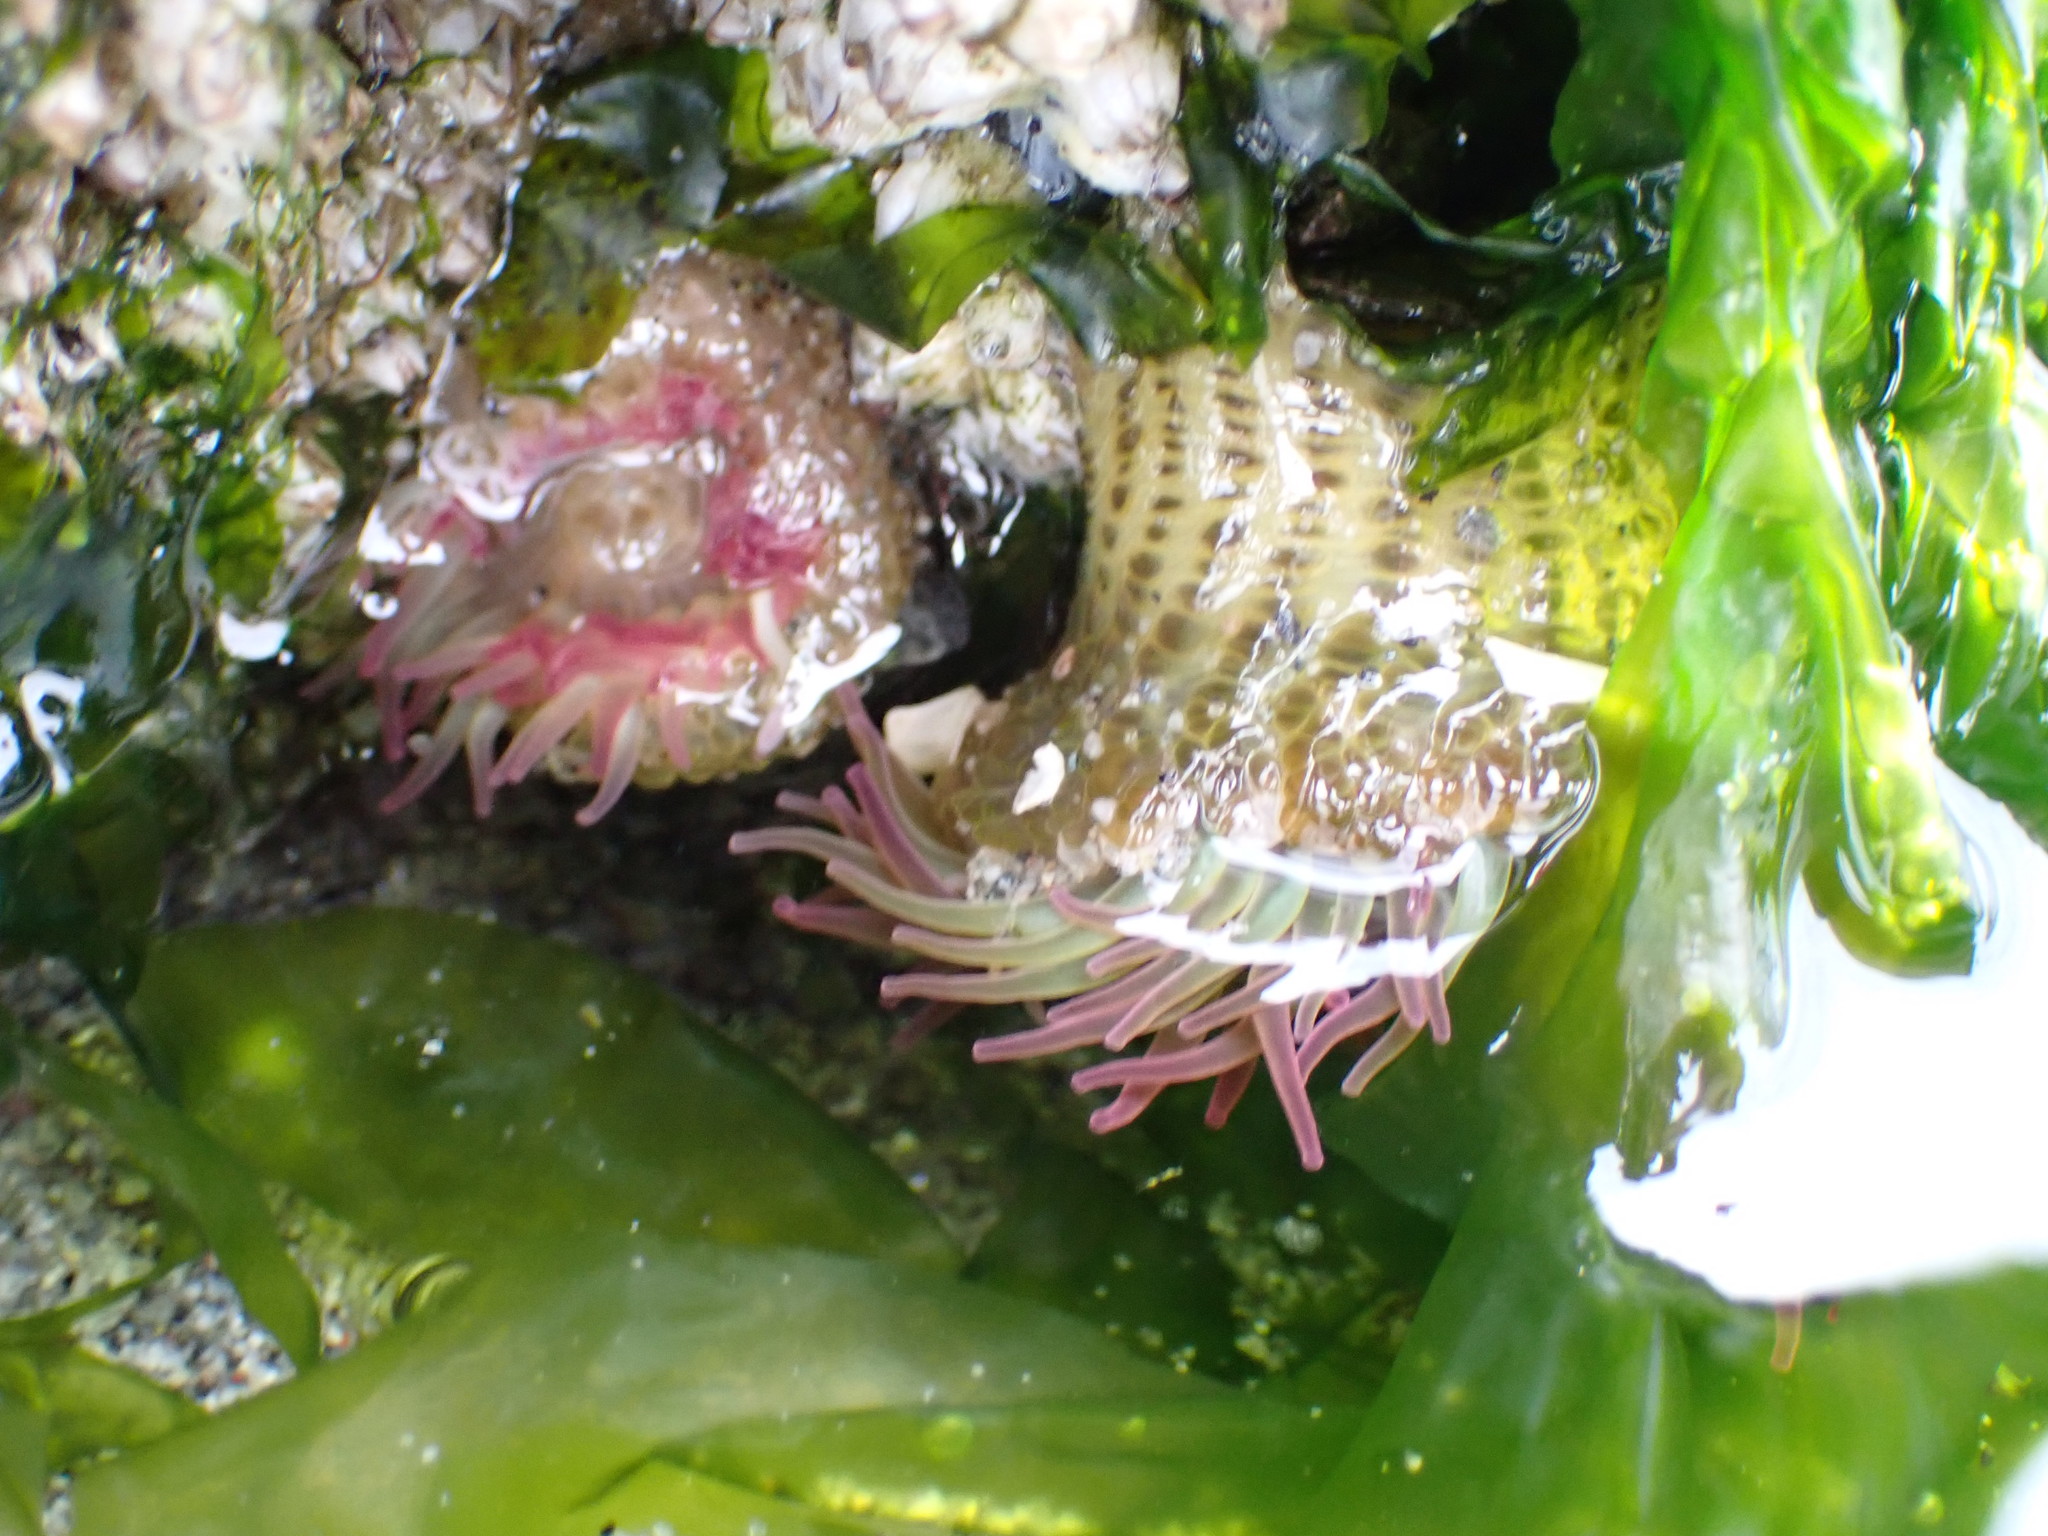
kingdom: Animalia
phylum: Cnidaria
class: Anthozoa
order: Actiniaria
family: Actiniidae
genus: Anthopleura
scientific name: Anthopleura elegantissima
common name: Clonal anemone
